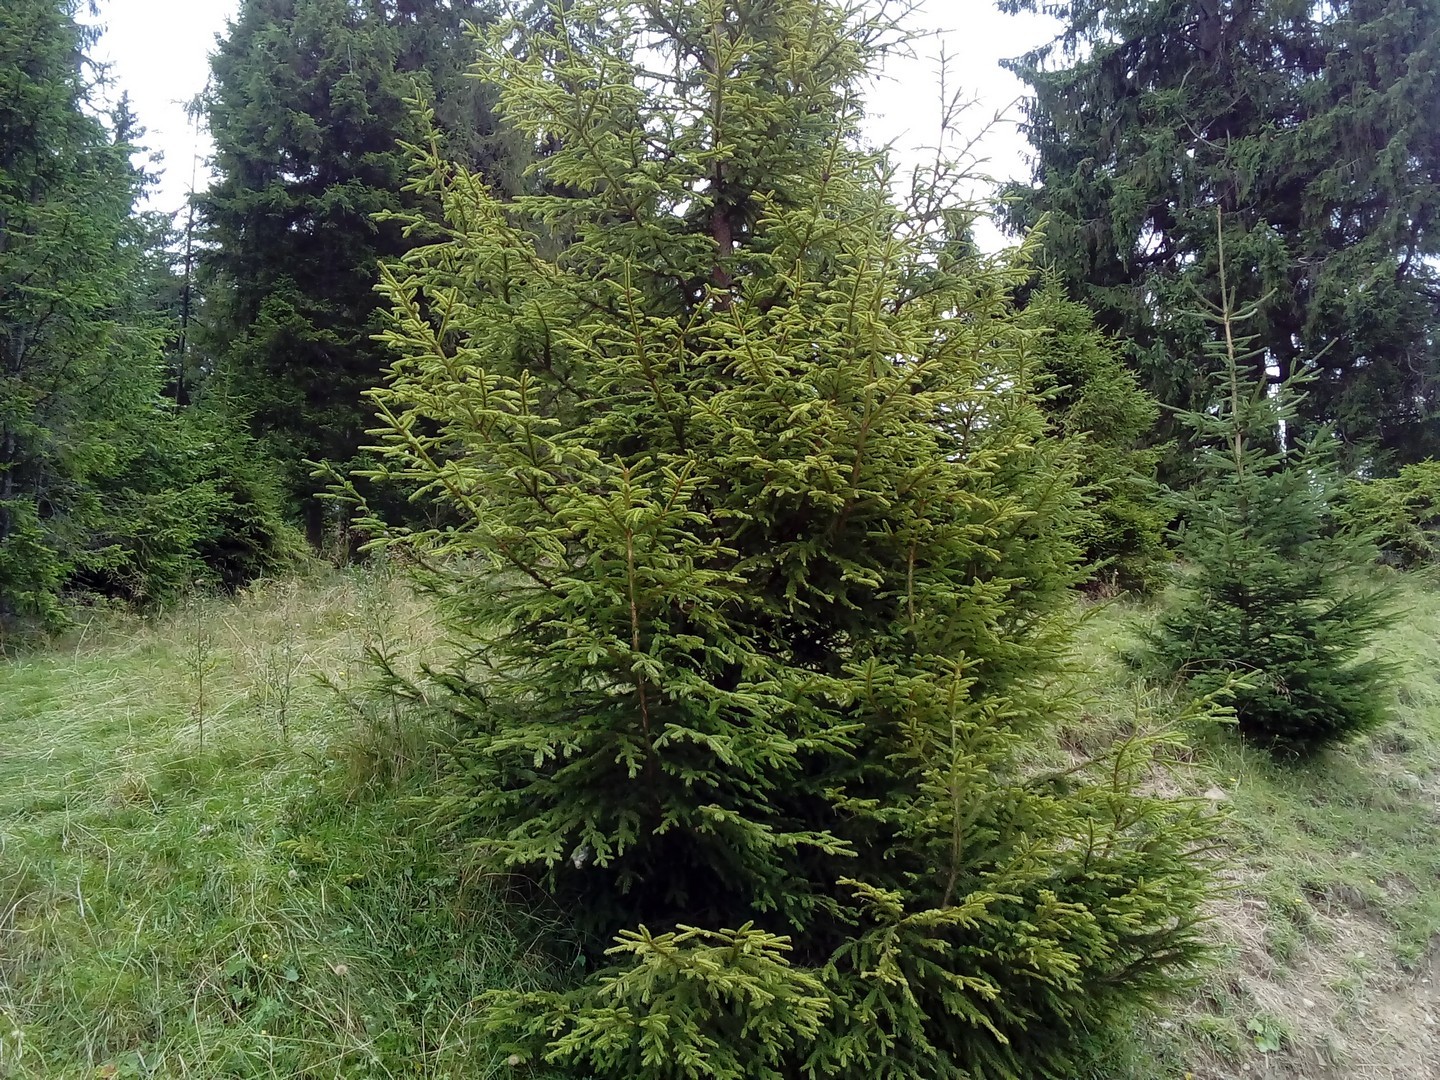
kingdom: Plantae
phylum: Tracheophyta
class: Pinopsida
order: Pinales
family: Pinaceae
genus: Picea
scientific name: Picea abies
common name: Norway spruce
